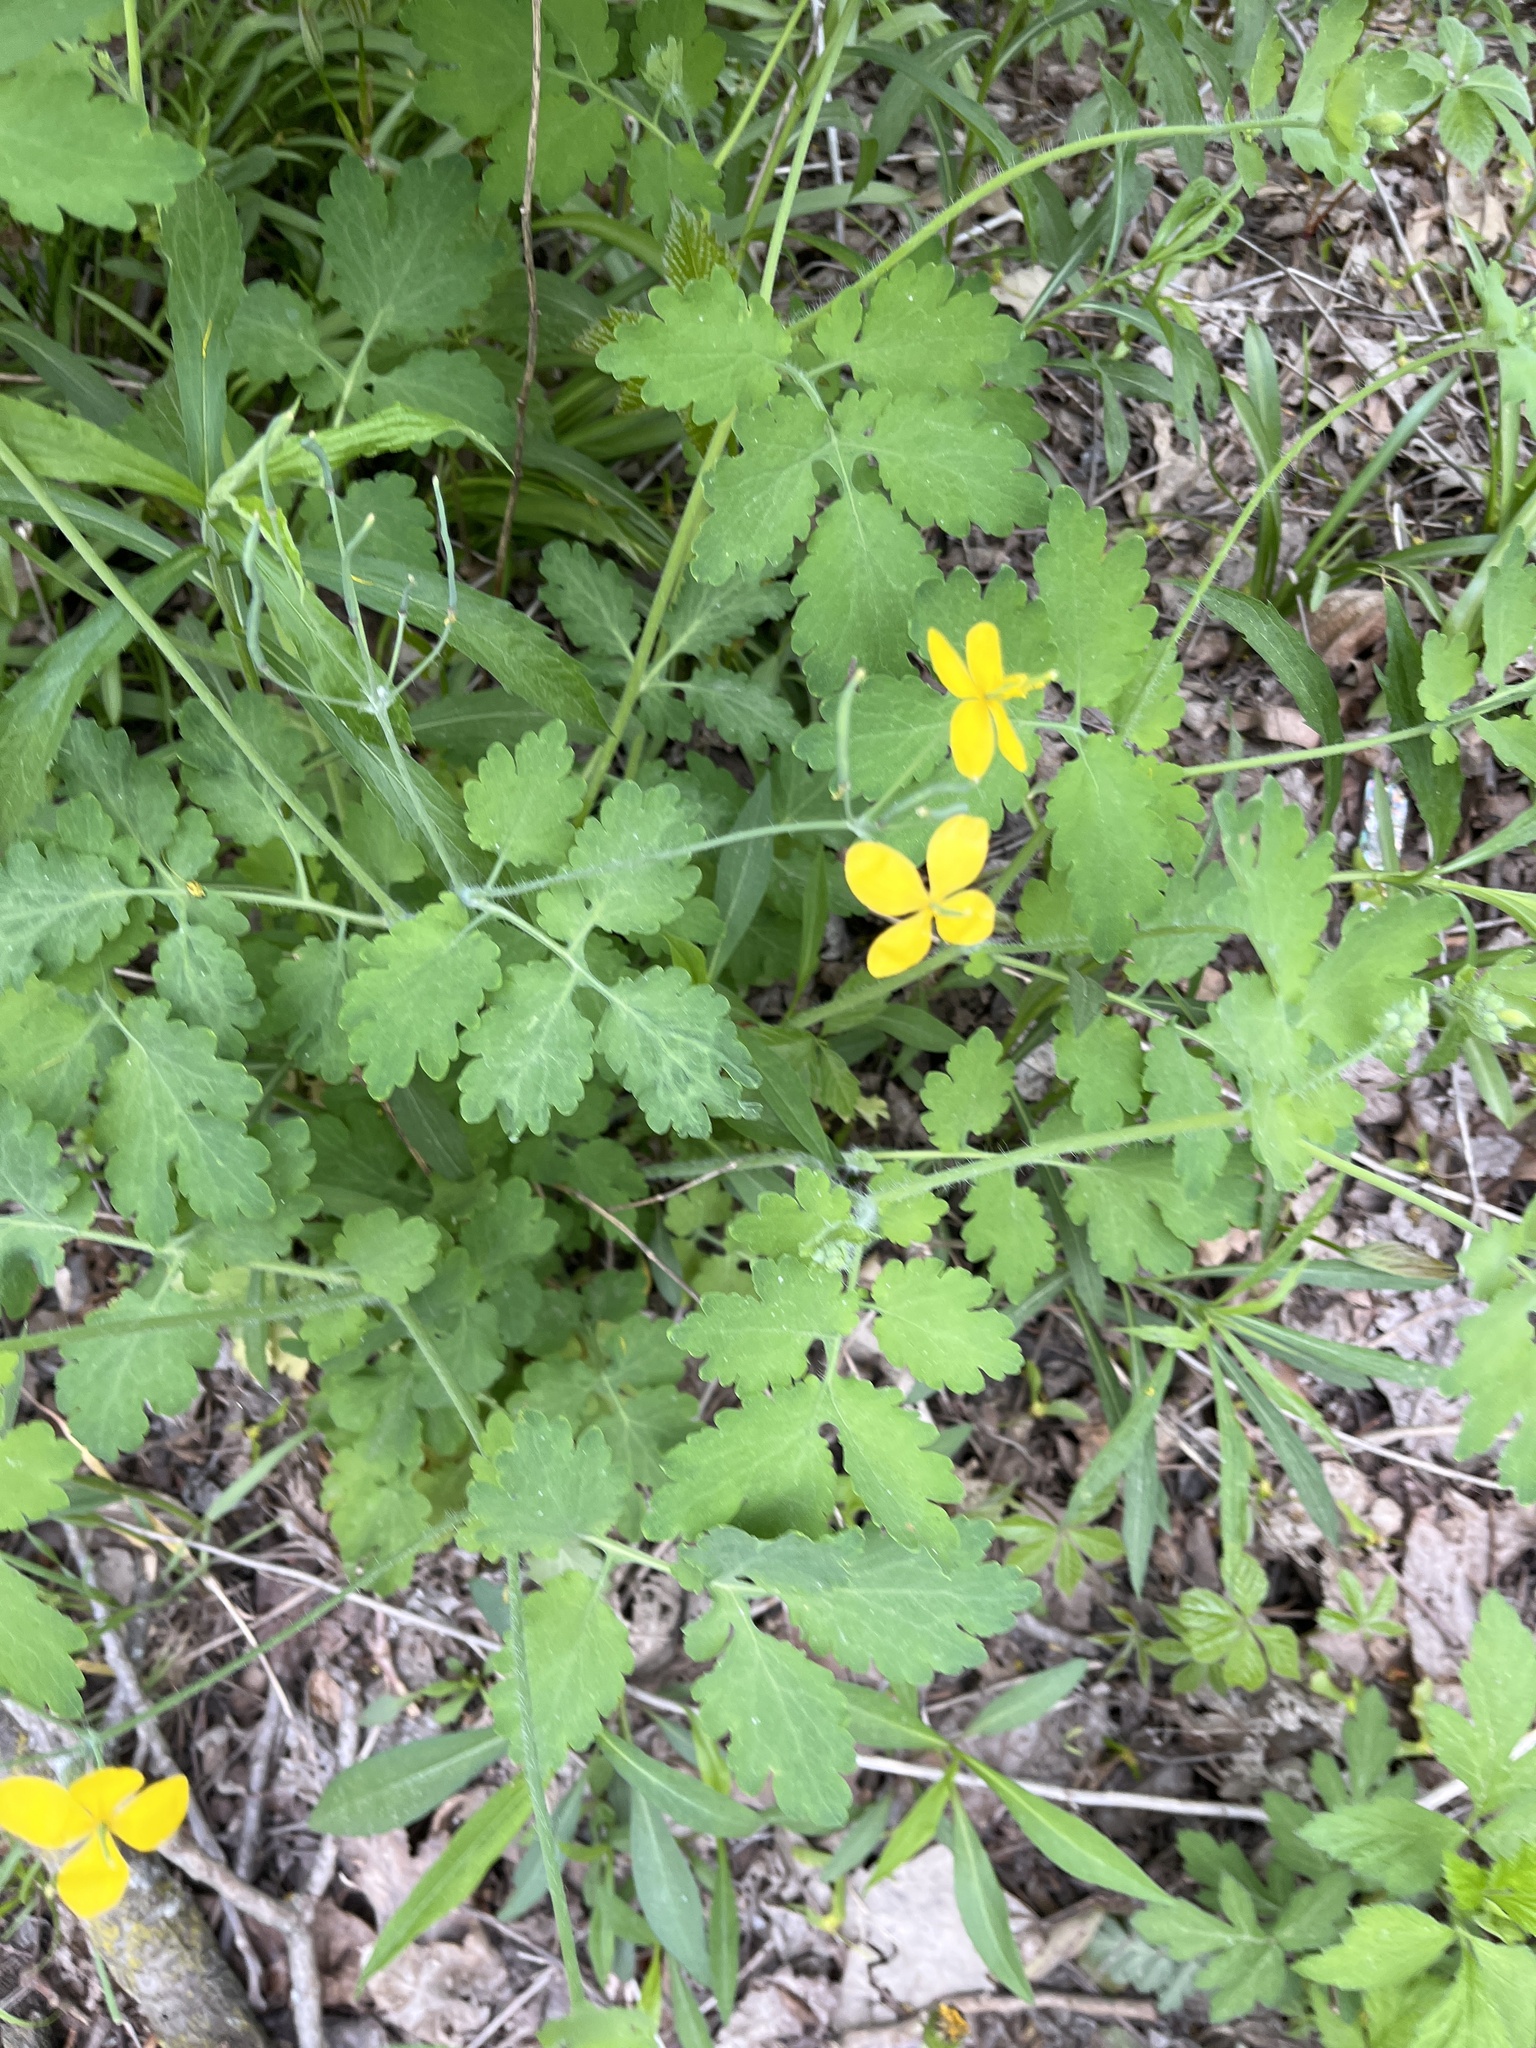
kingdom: Plantae
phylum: Tracheophyta
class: Magnoliopsida
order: Ranunculales
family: Papaveraceae
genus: Chelidonium
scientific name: Chelidonium majus
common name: Greater celandine
